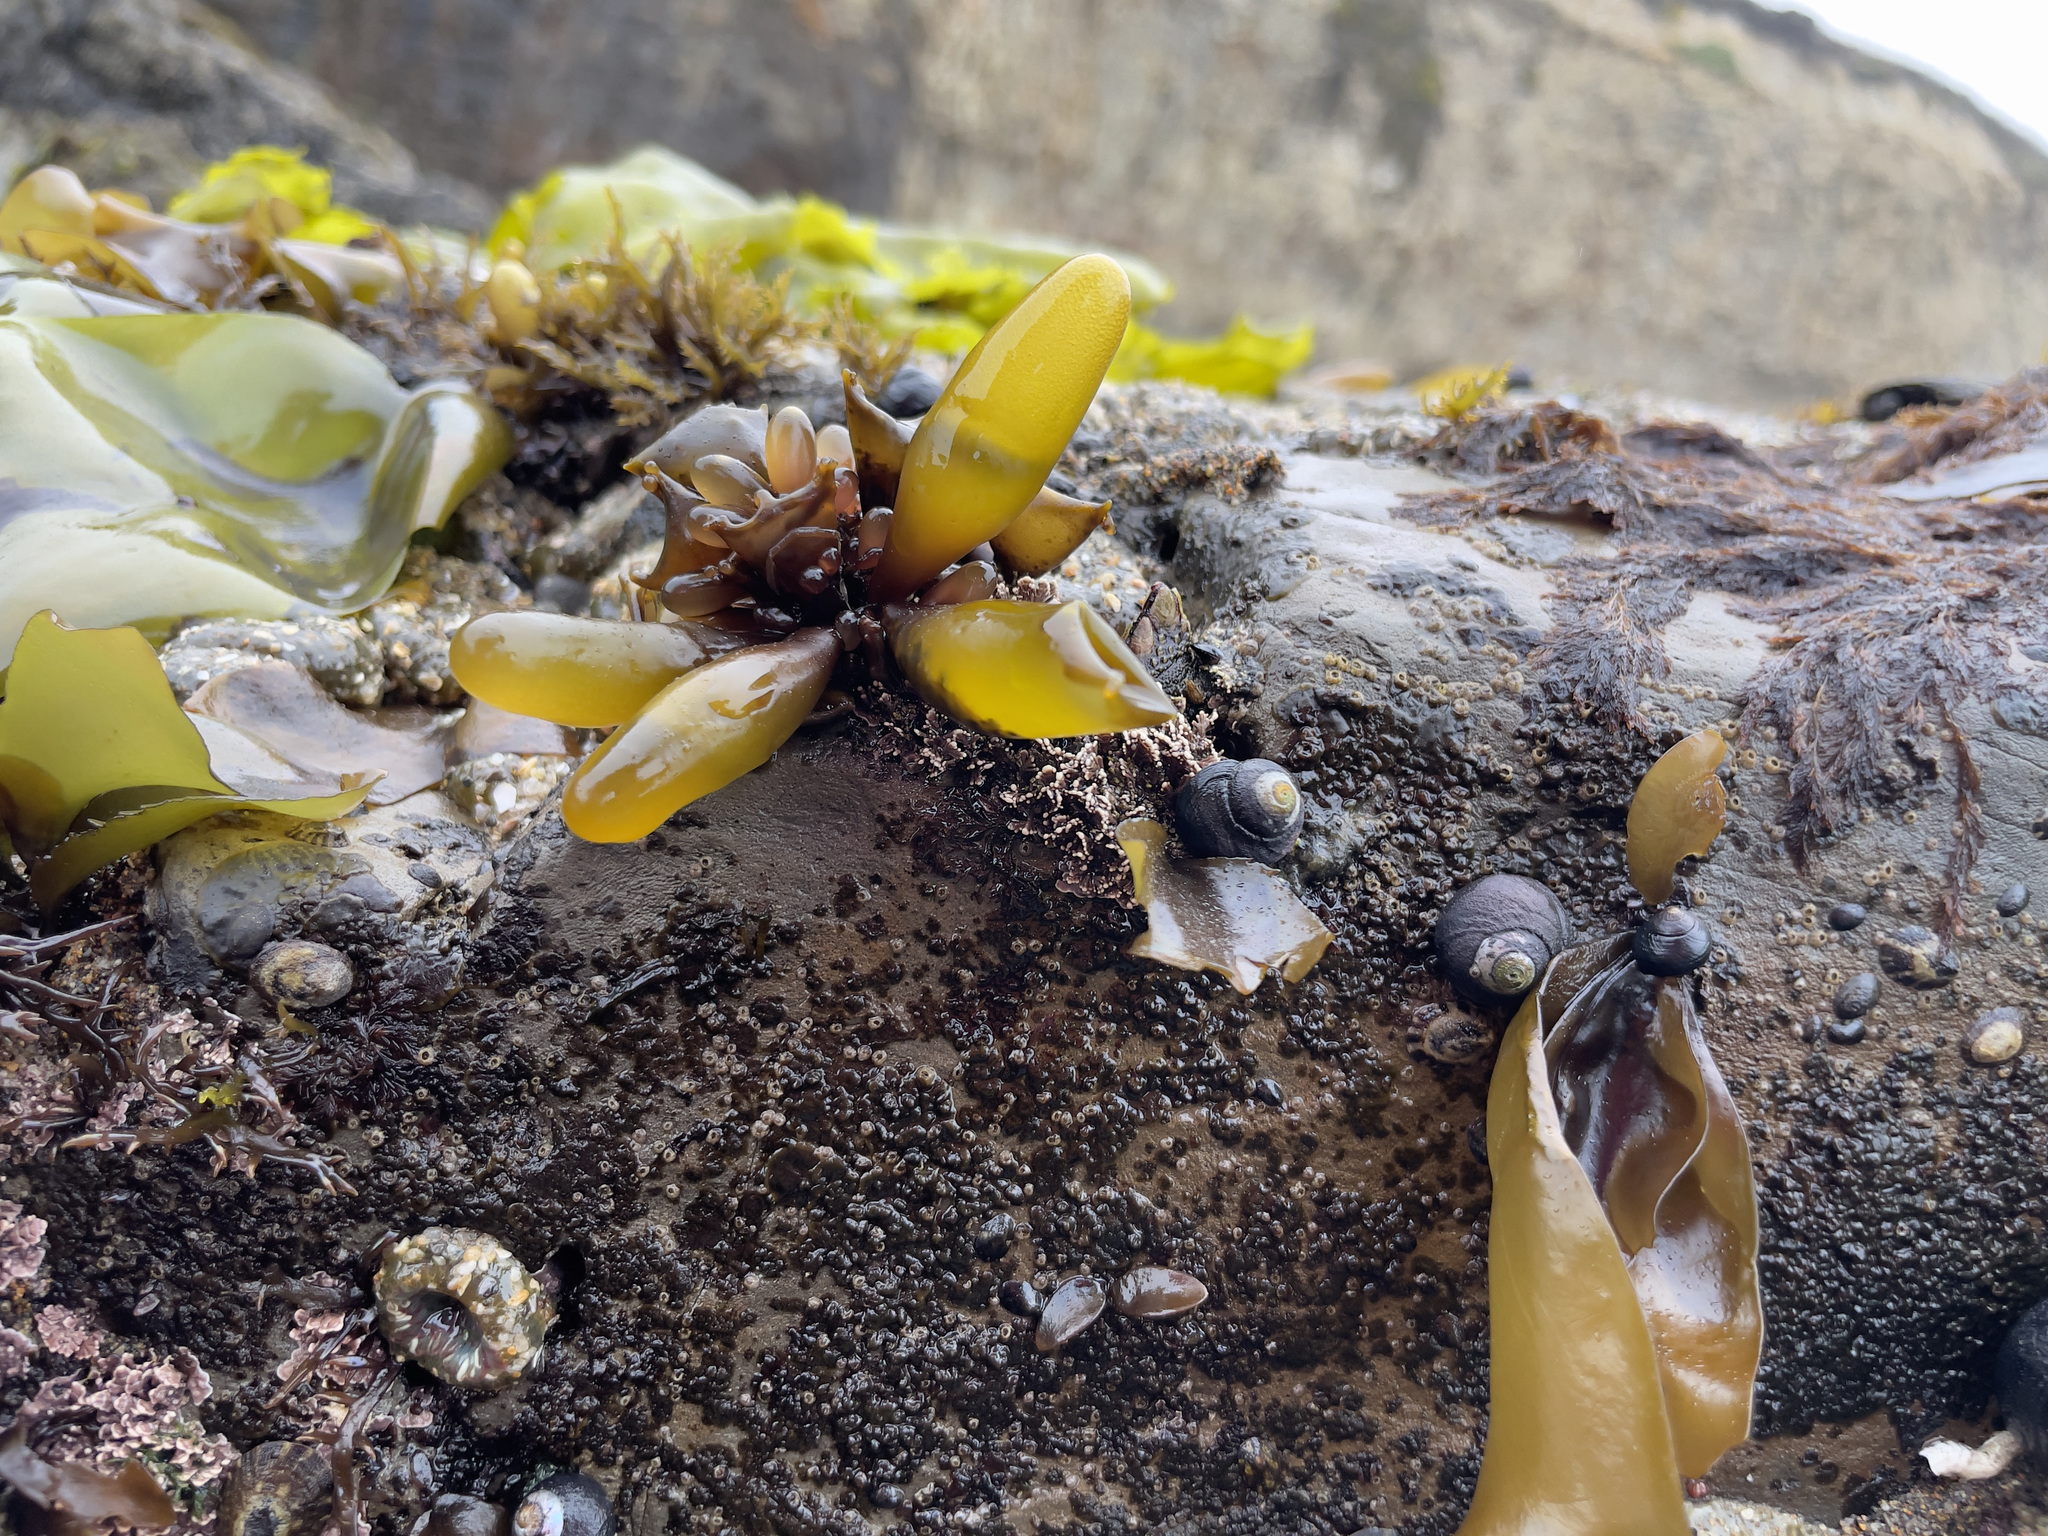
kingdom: Plantae
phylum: Rhodophyta
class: Florideophyceae
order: Palmariales
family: Palmariaceae
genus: Halosaccion
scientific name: Halosaccion glandiforme
